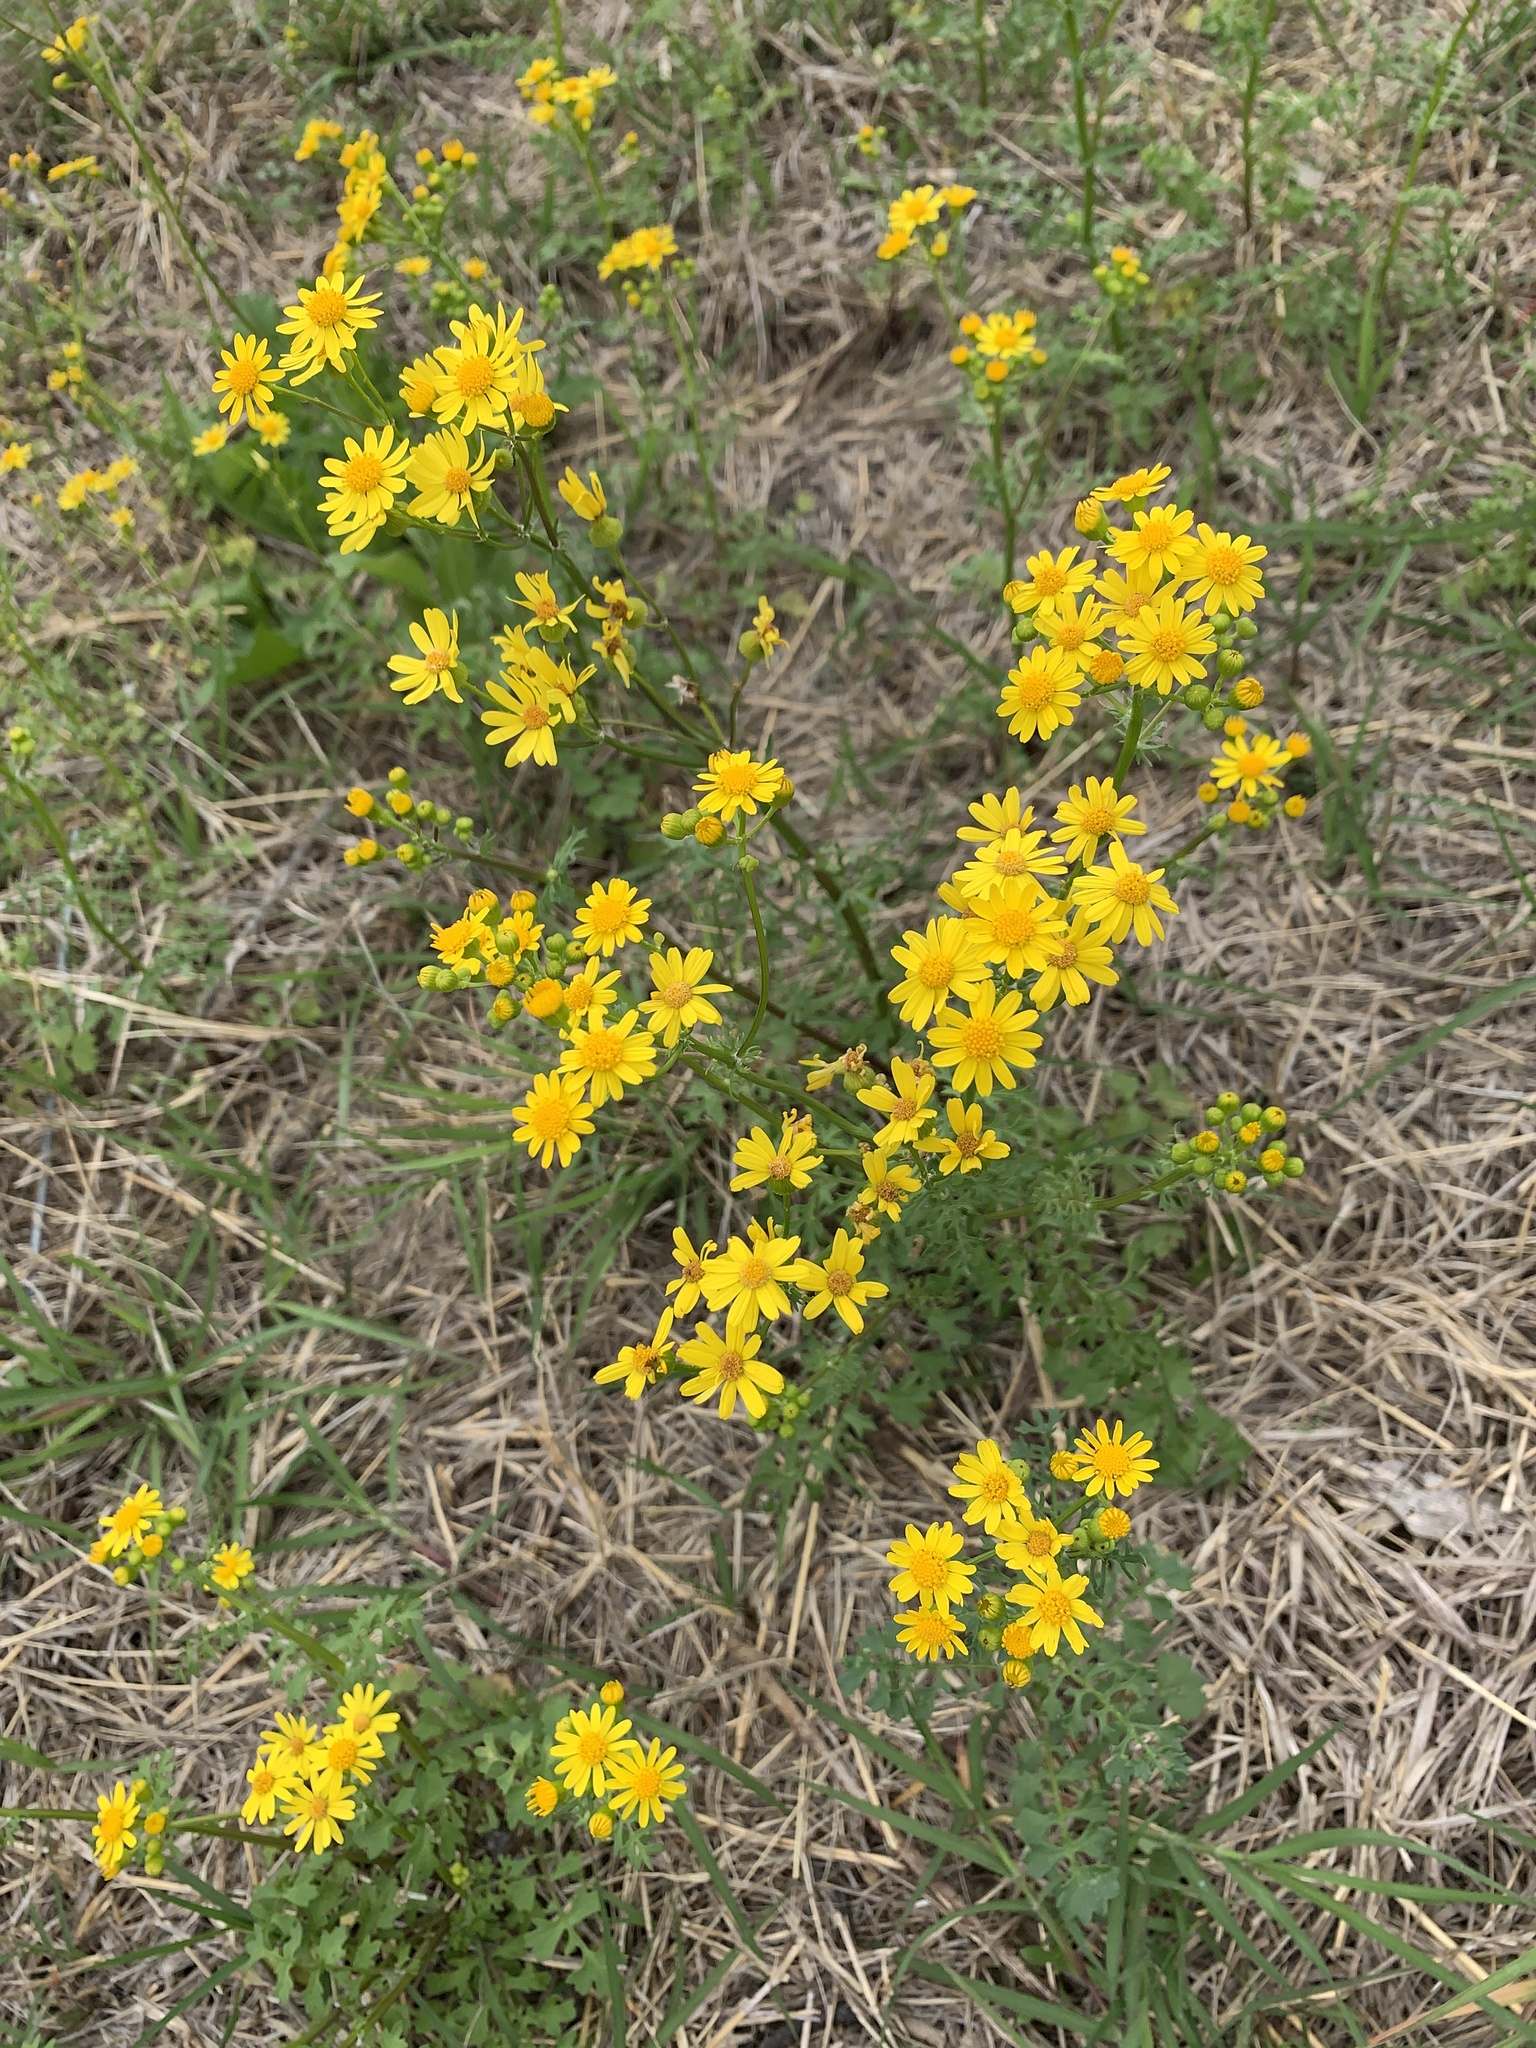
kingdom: Plantae
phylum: Tracheophyta
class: Magnoliopsida
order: Asterales
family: Asteraceae
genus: Packera
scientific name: Packera tampicana
